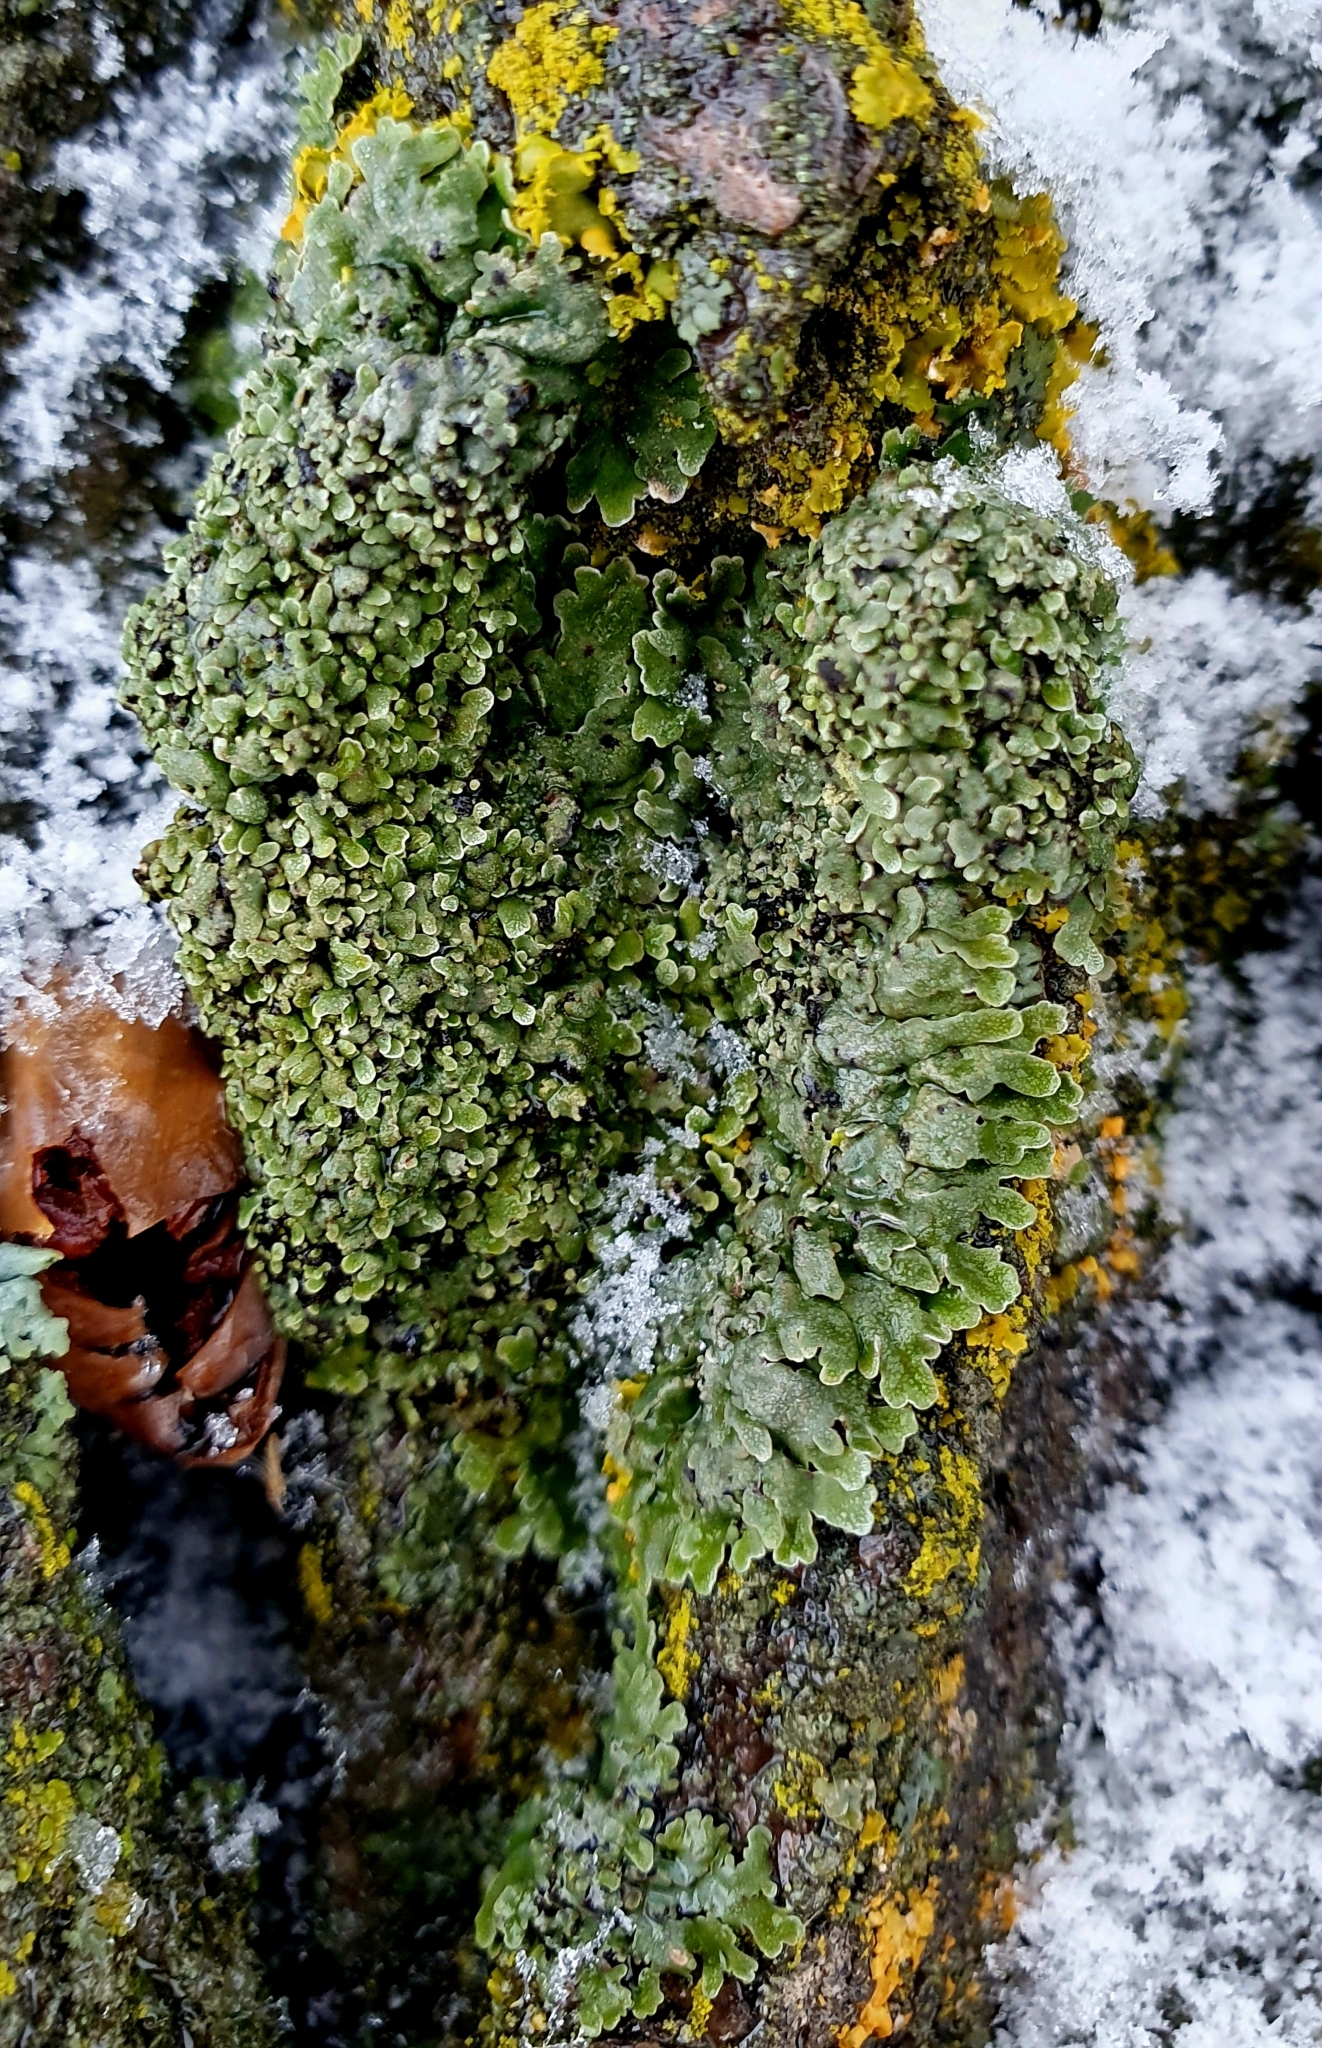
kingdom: Fungi
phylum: Ascomycota
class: Lecanoromycetes
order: Caliciales
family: Physciaceae
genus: Physconia
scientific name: Physconia distorta
